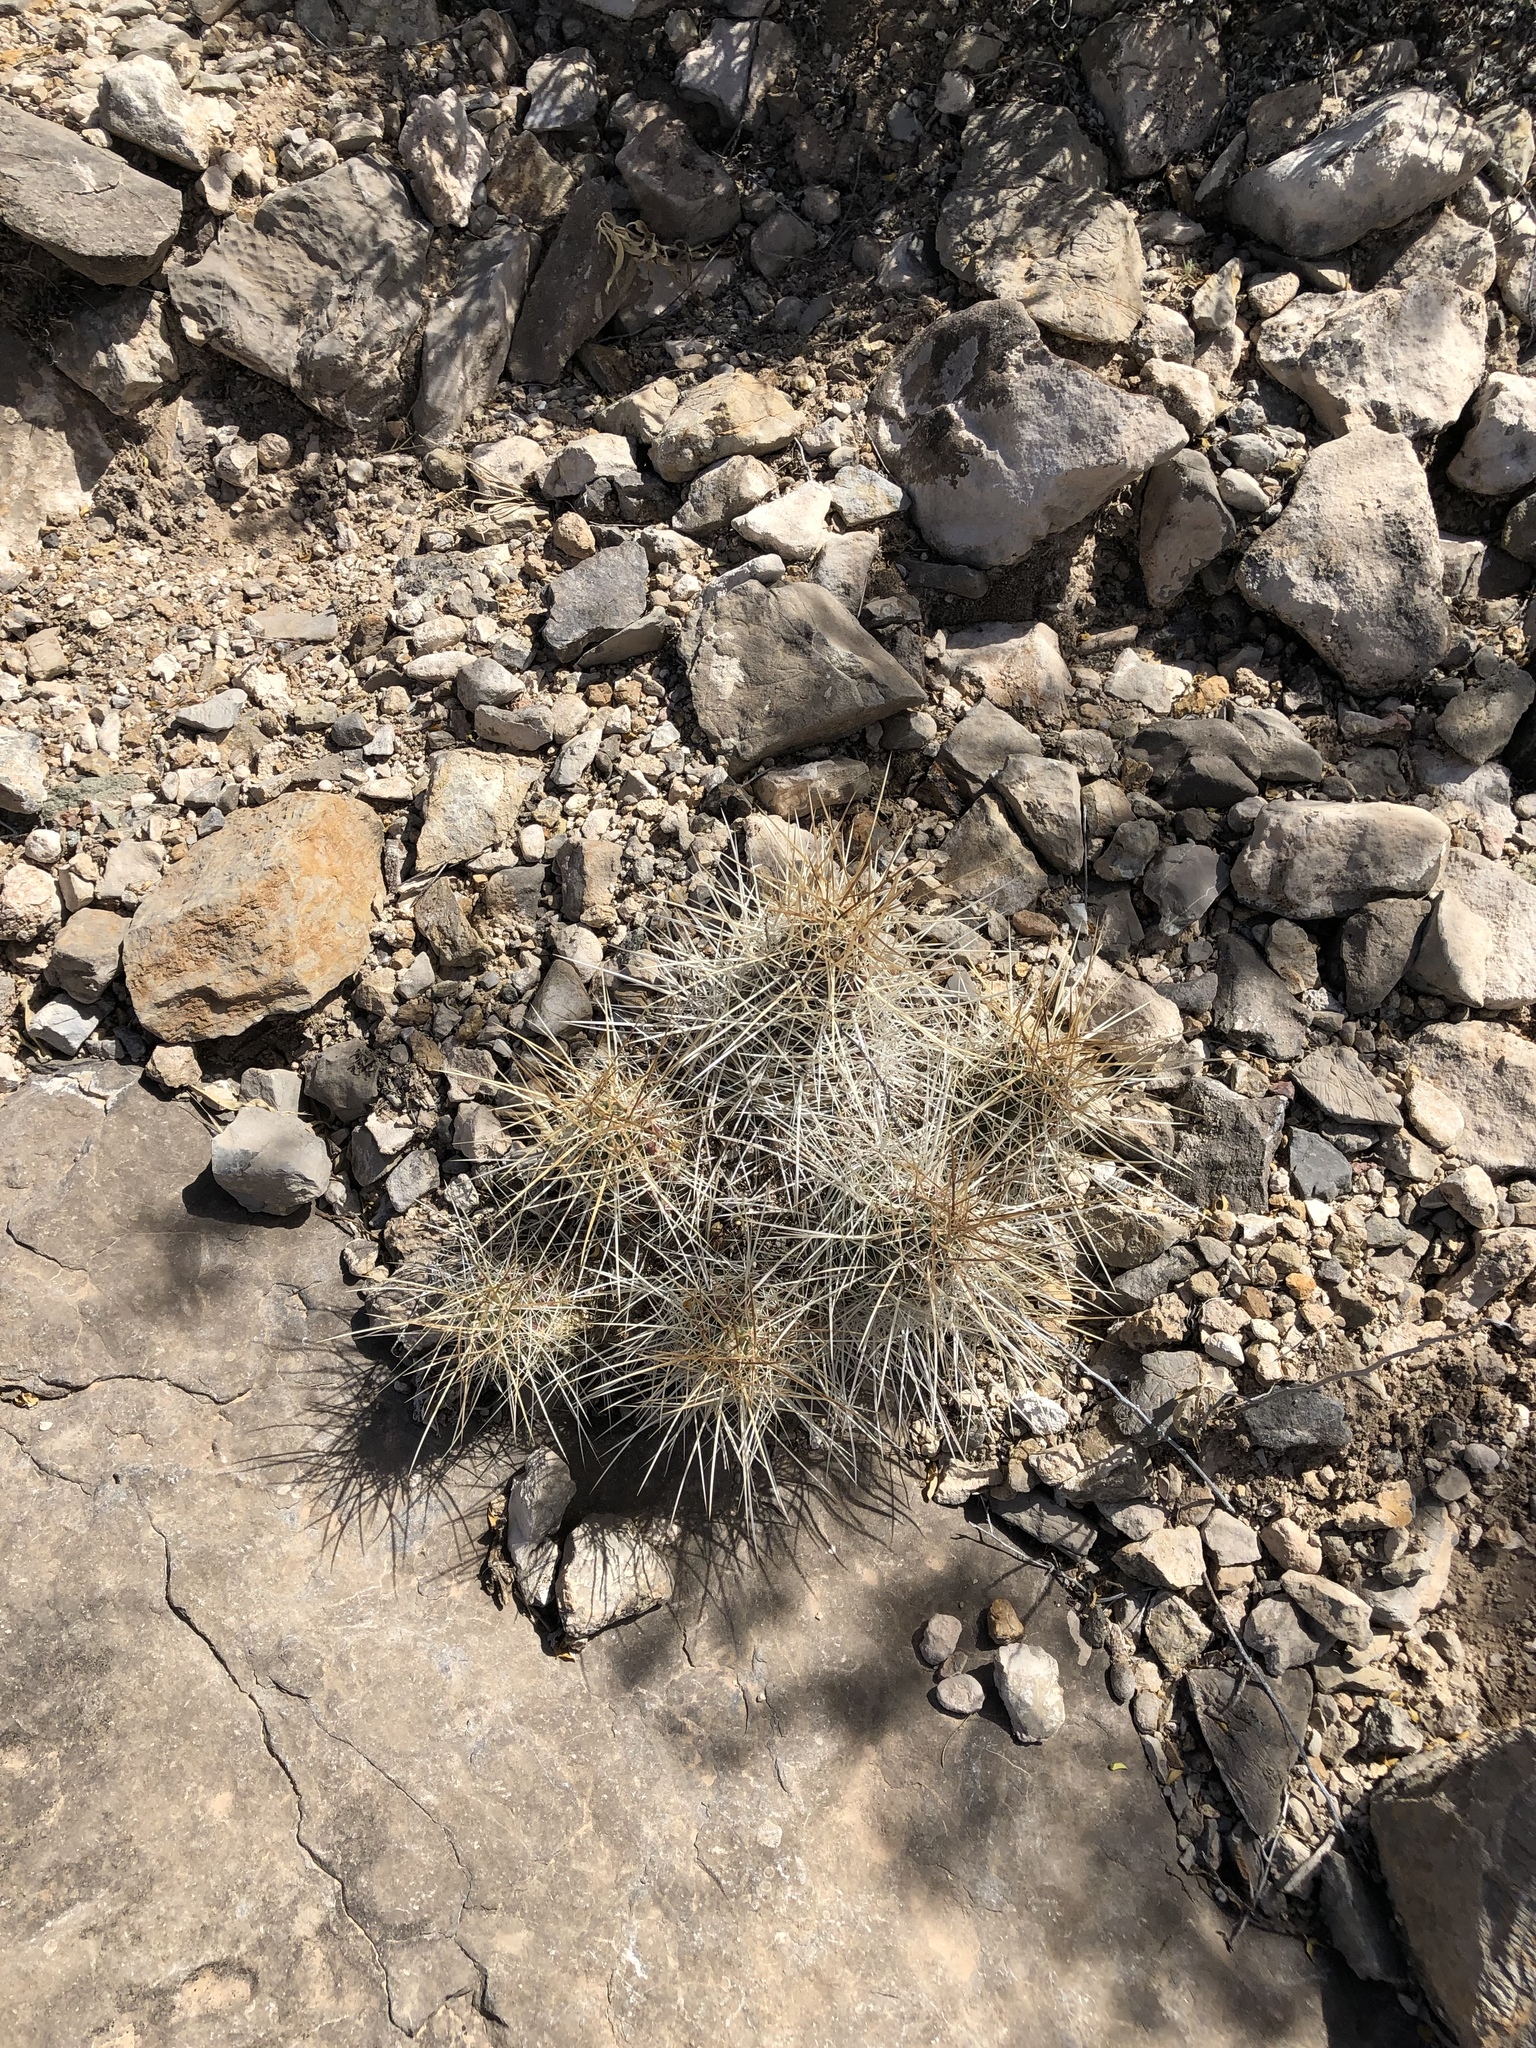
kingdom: Plantae
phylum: Tracheophyta
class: Magnoliopsida
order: Caryophyllales
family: Cactaceae
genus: Echinocereus
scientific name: Echinocereus stramineus
